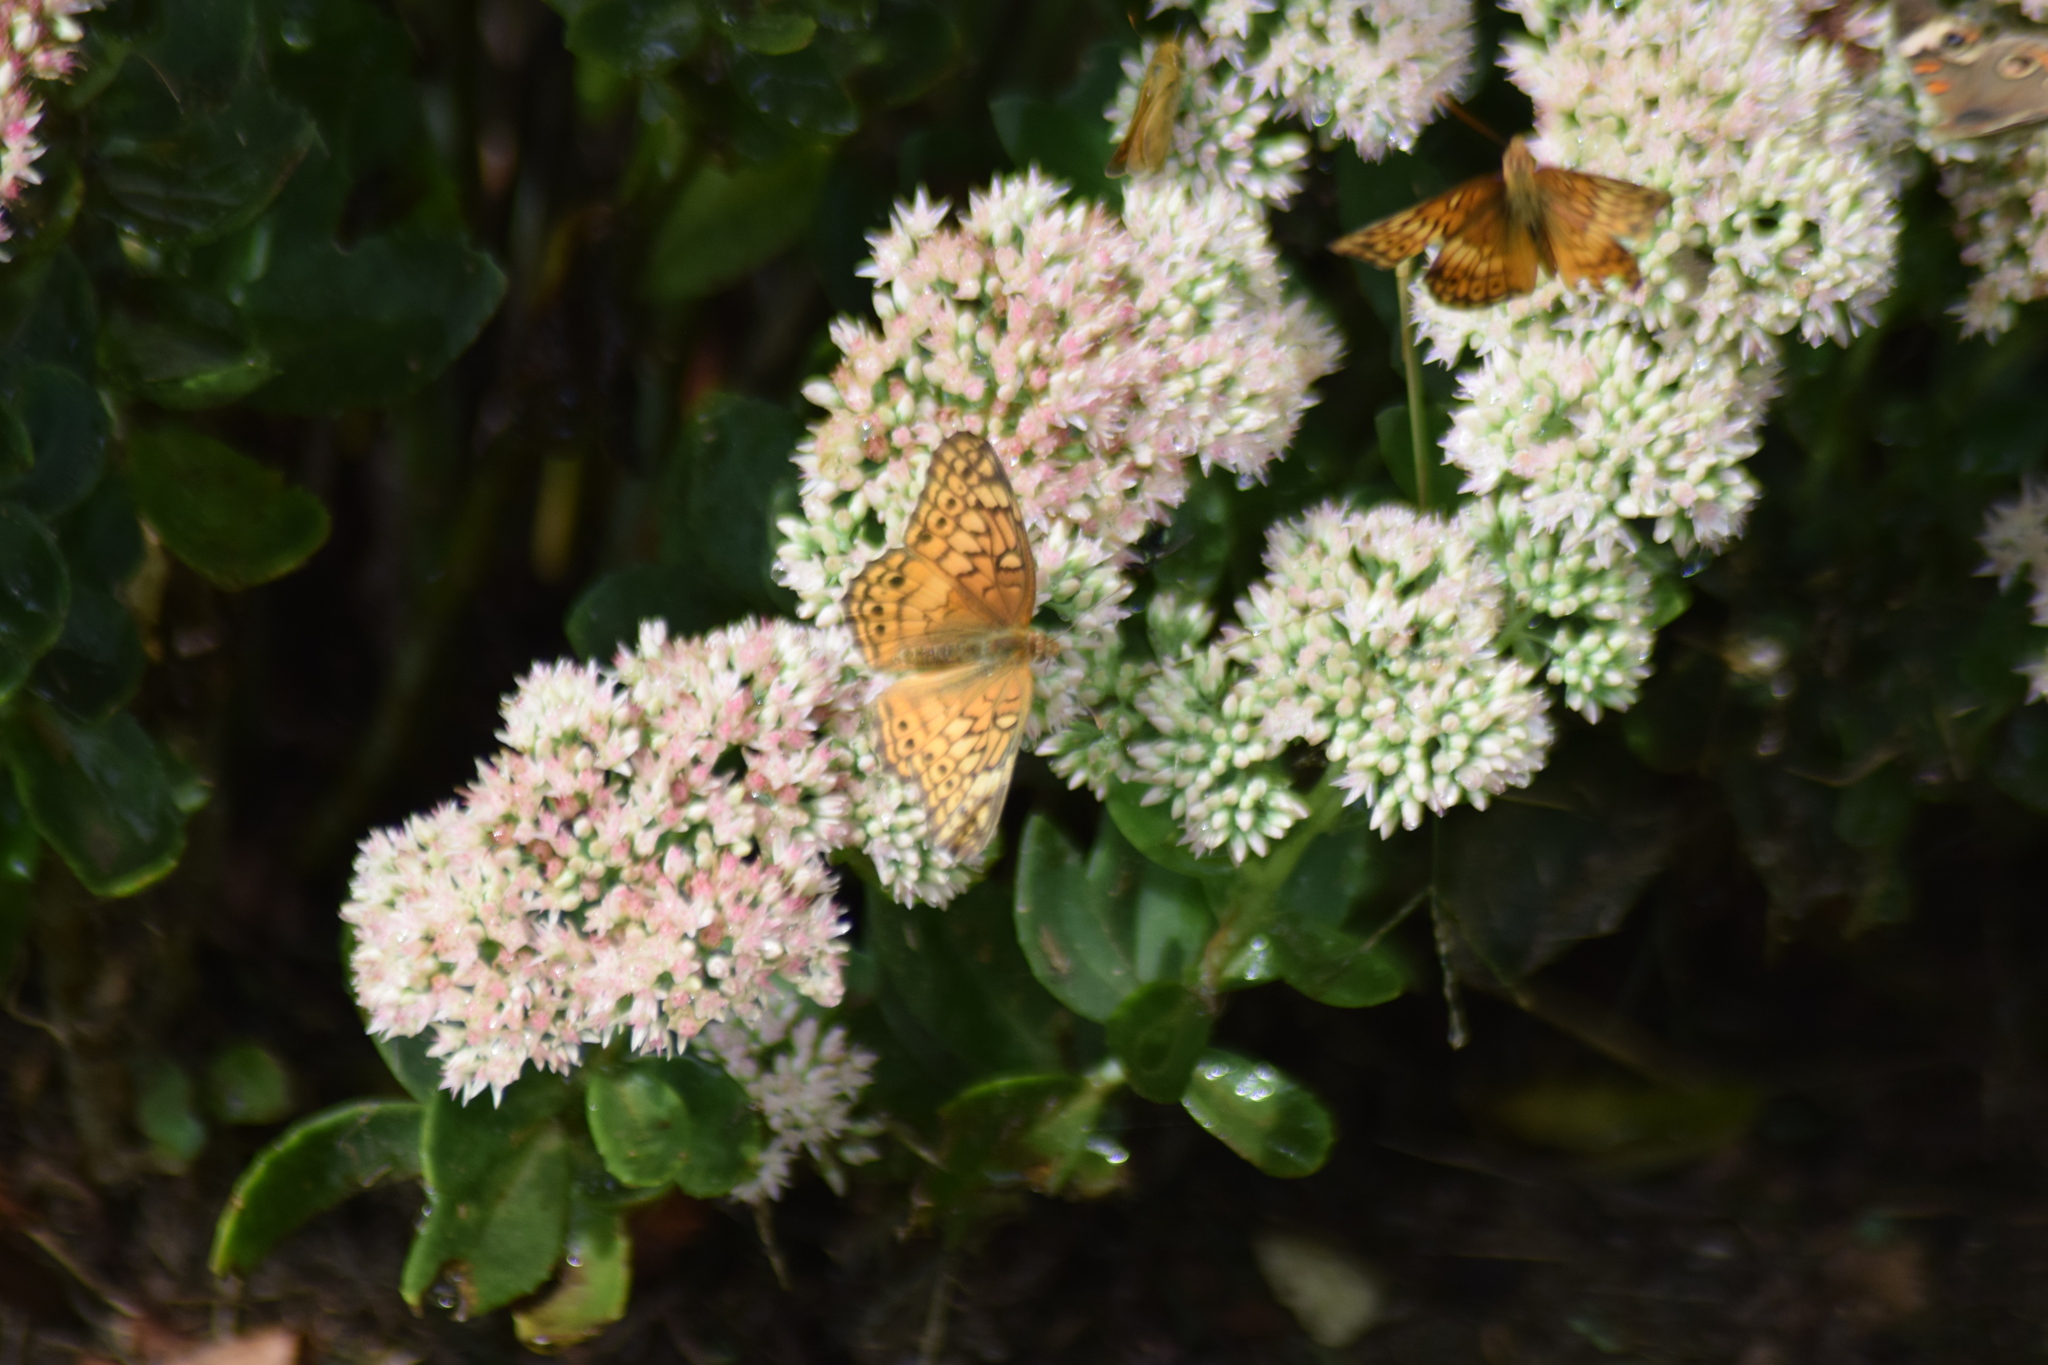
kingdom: Animalia
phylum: Arthropoda
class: Insecta
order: Lepidoptera
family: Nymphalidae
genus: Euptoieta
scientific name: Euptoieta claudia
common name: Variegated fritillary
